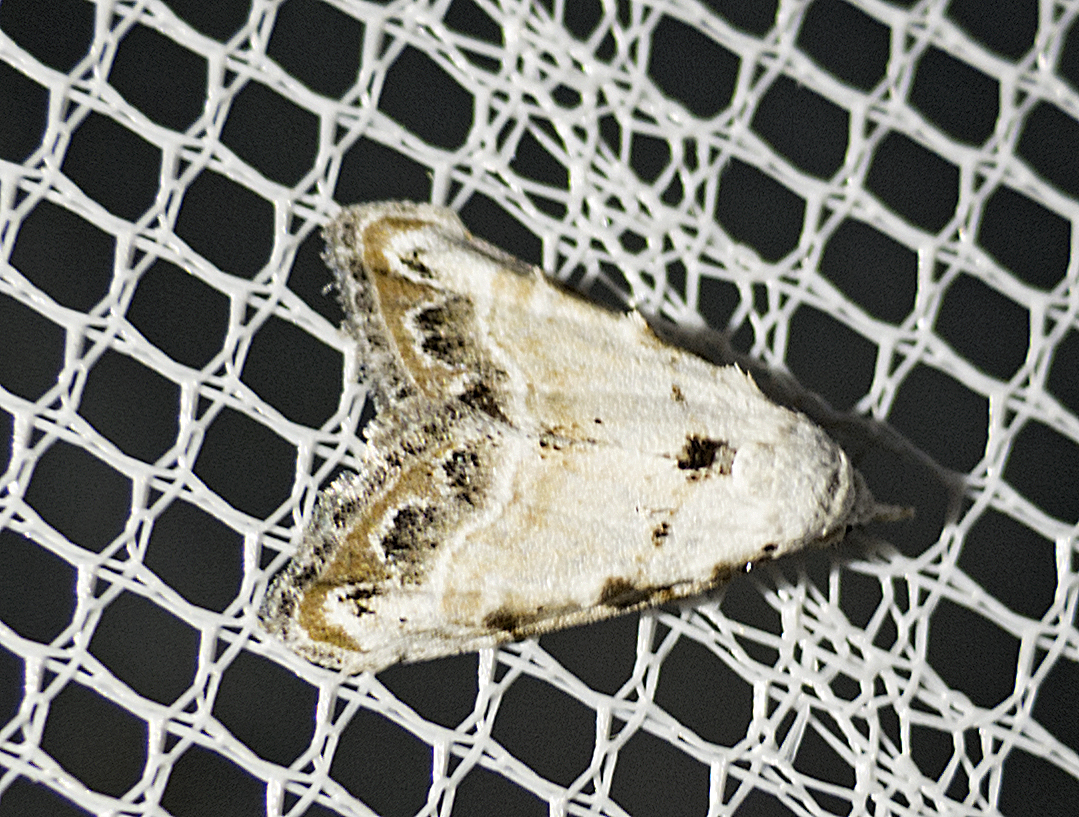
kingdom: Animalia
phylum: Arthropoda
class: Insecta
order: Lepidoptera
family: Nolidae
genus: Nola
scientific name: Nola chlamitulalis
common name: Jersey black arches
